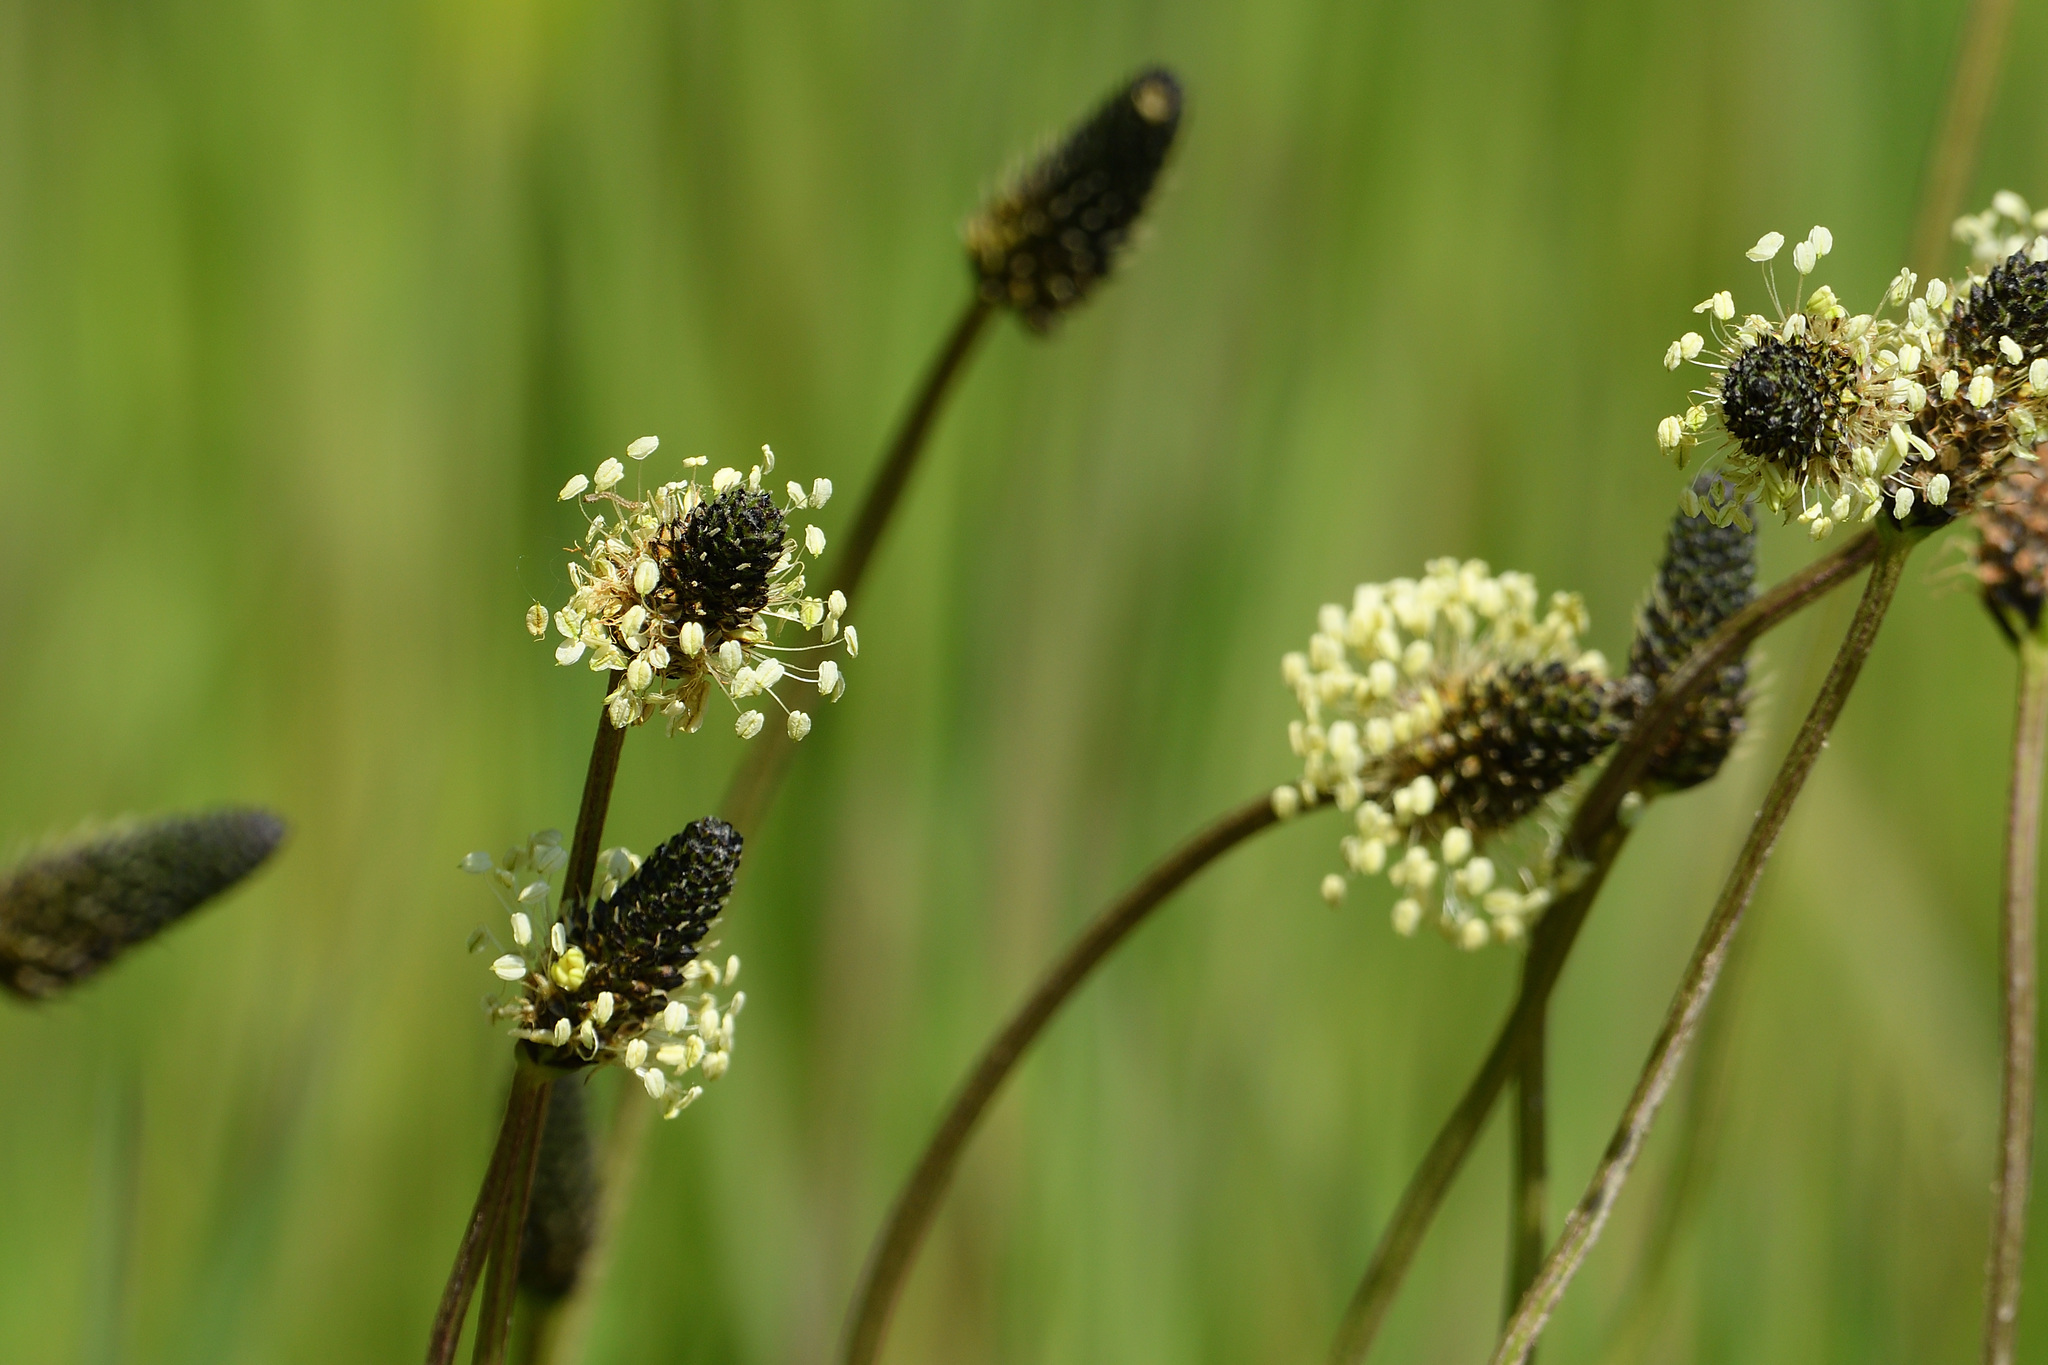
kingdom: Plantae
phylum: Tracheophyta
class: Magnoliopsida
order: Lamiales
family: Plantaginaceae
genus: Plantago
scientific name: Plantago lanceolata
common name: Ribwort plantain
